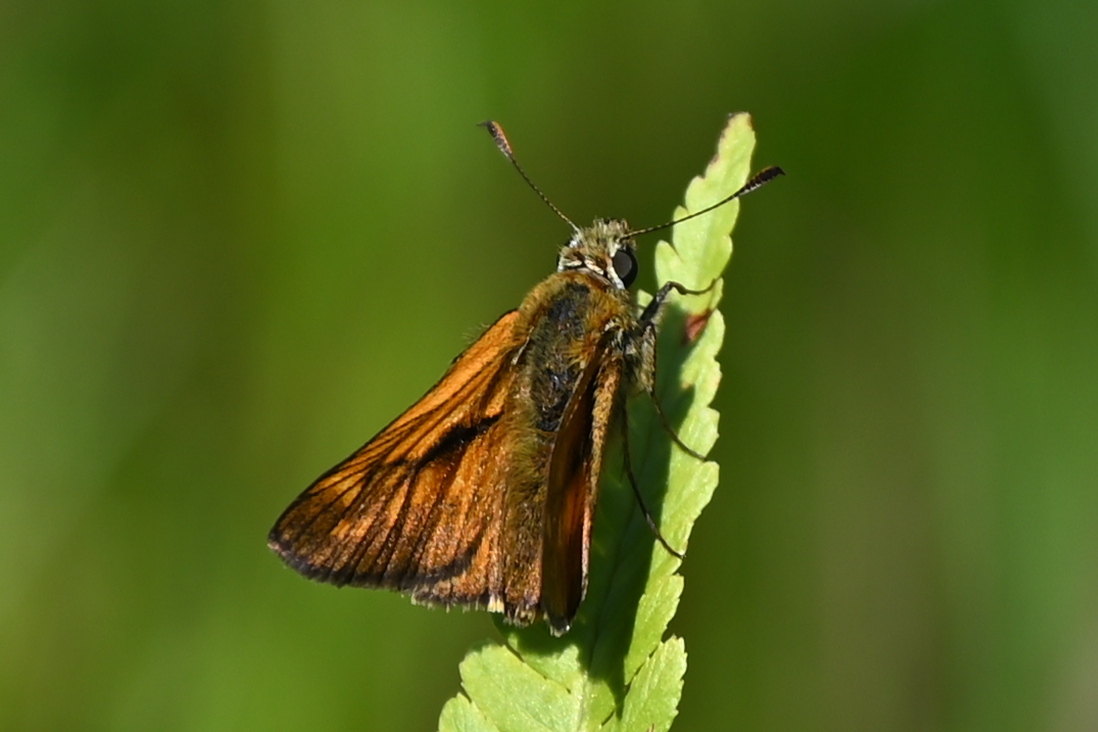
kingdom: Animalia
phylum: Arthropoda
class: Insecta
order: Lepidoptera
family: Hesperiidae
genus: Ochlodes
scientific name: Ochlodes venata
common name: Large skipper
